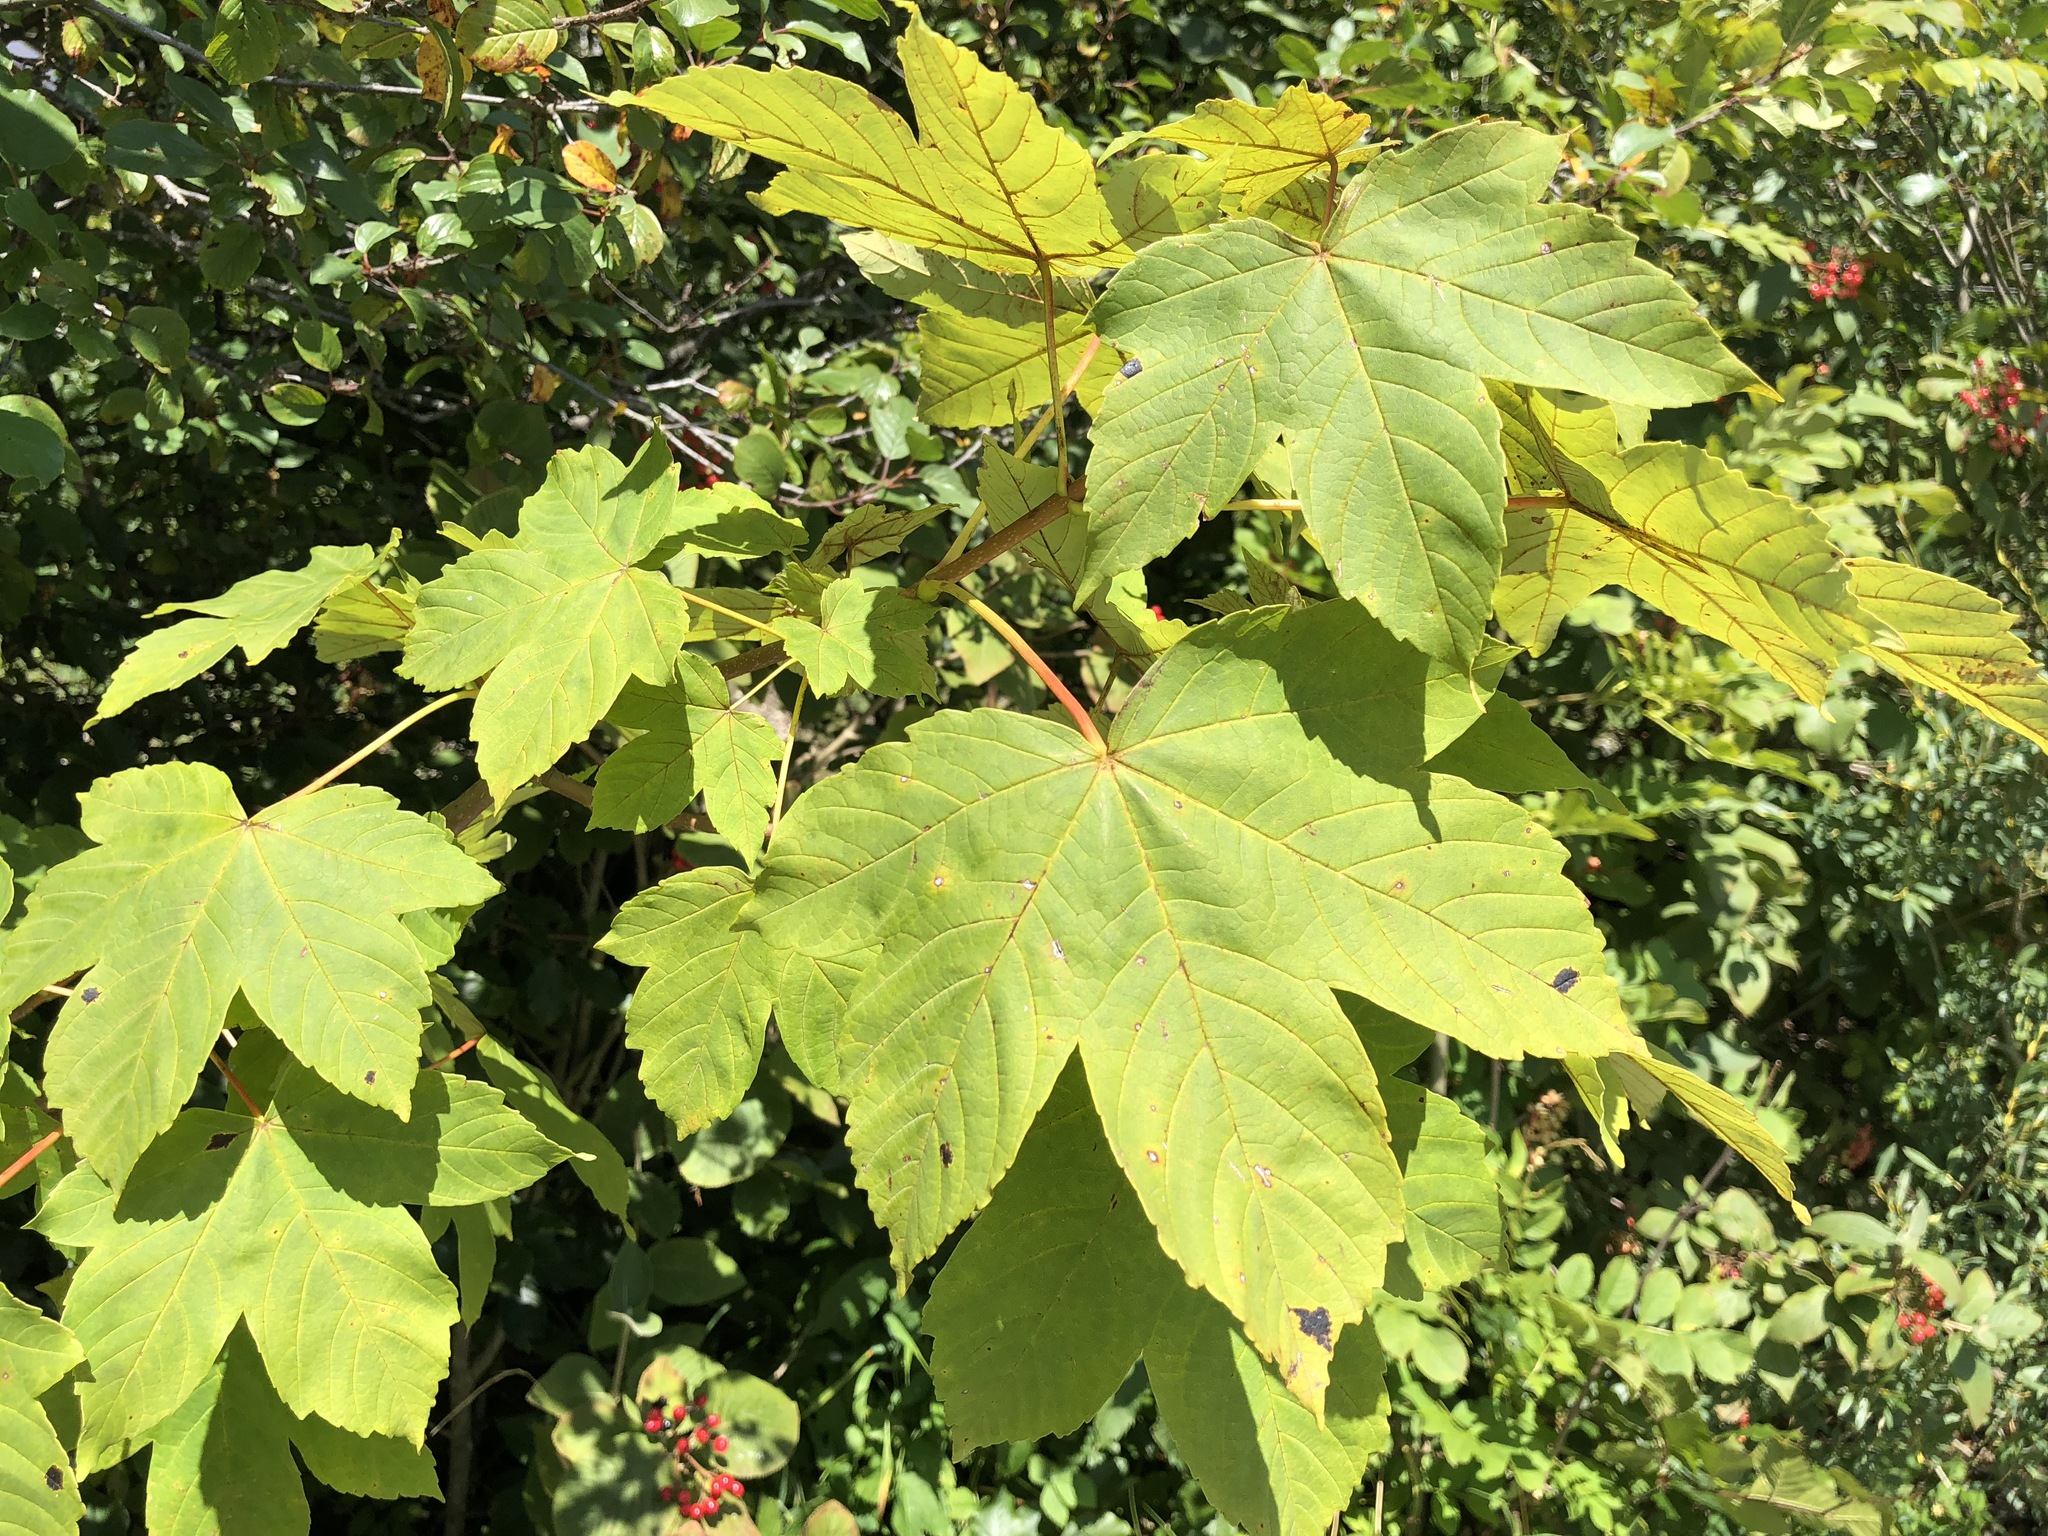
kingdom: Plantae
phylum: Tracheophyta
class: Magnoliopsida
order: Sapindales
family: Sapindaceae
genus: Acer
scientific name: Acer pseudoplatanus
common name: Sycamore
